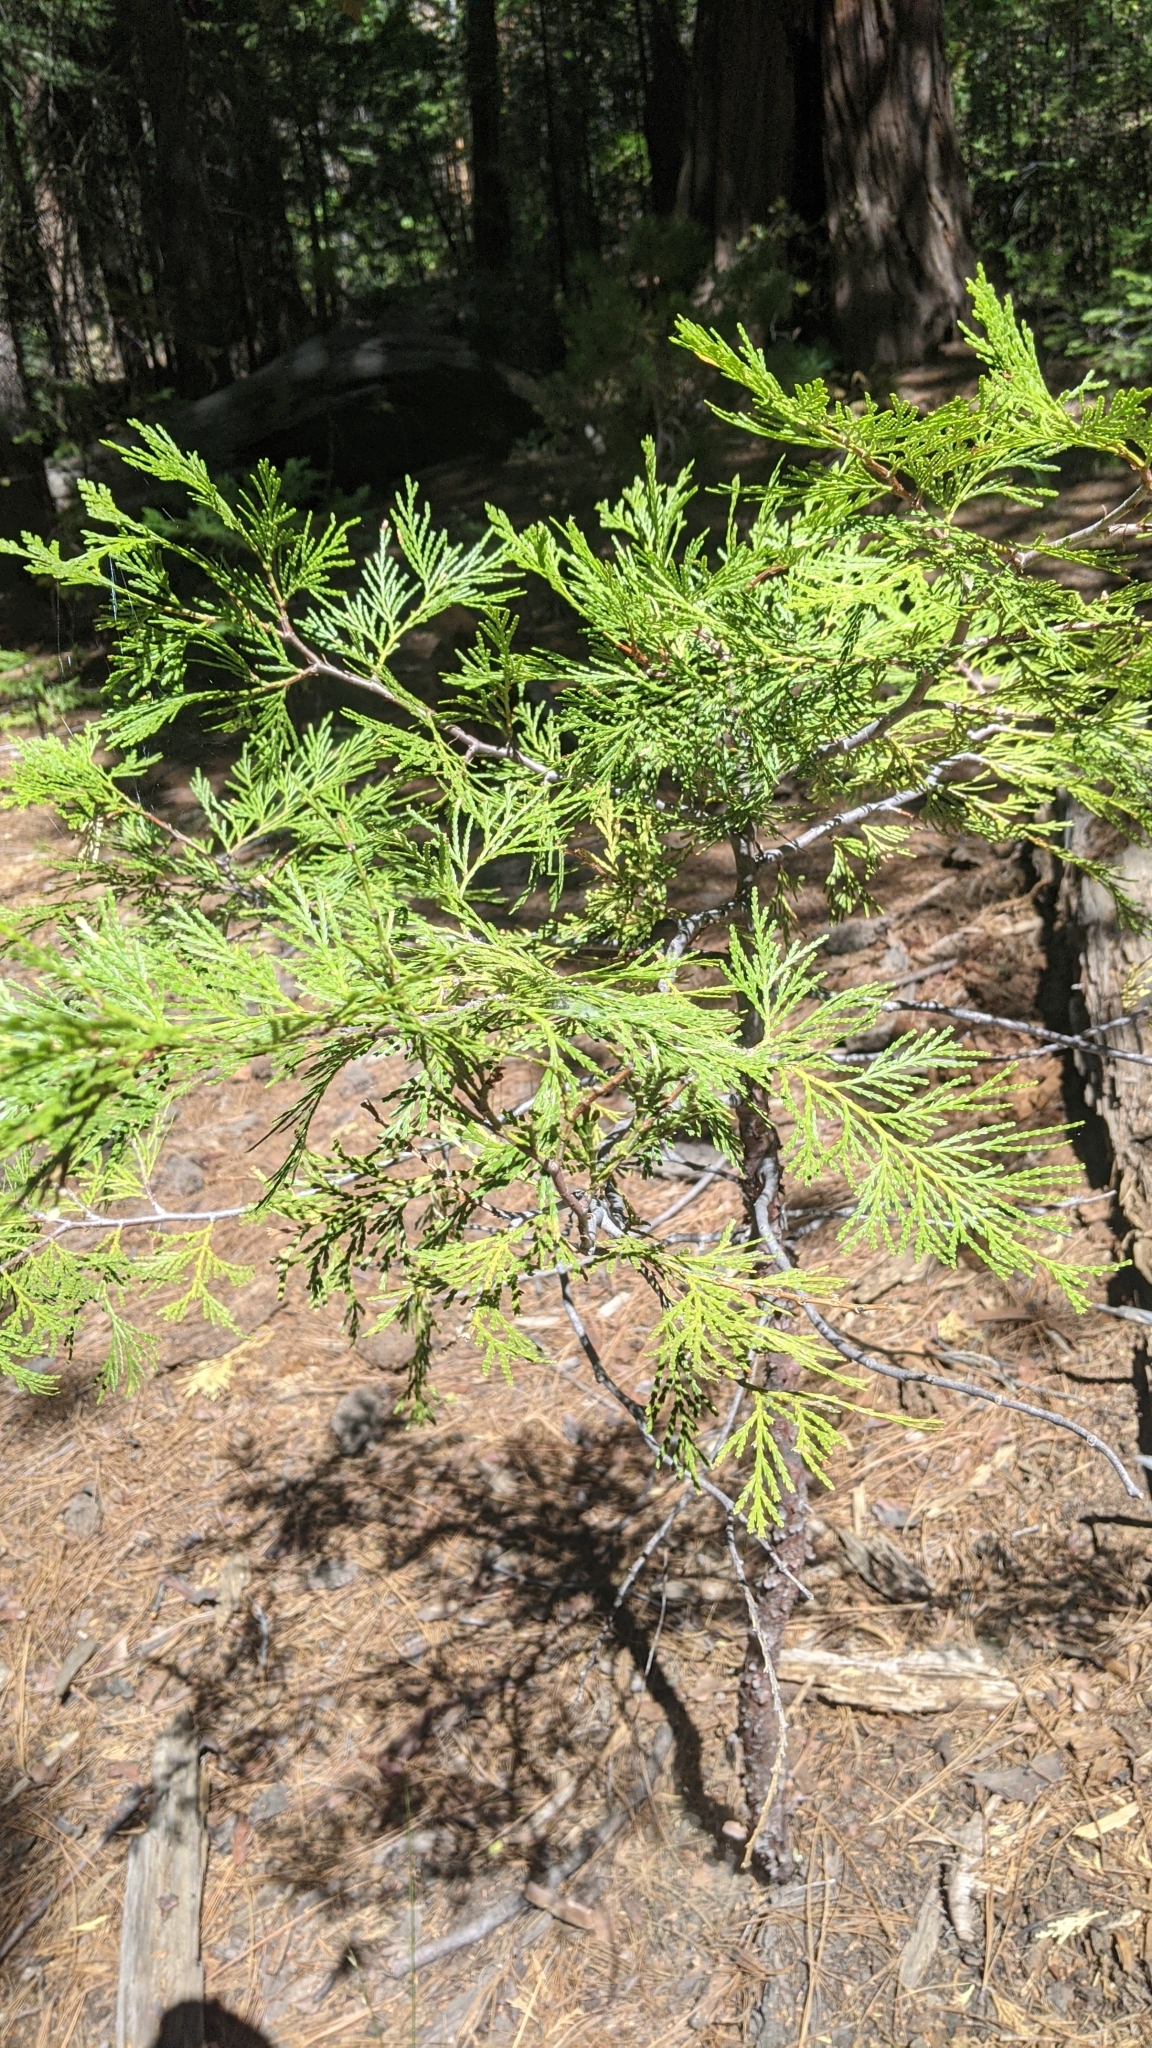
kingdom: Plantae
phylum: Tracheophyta
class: Pinopsida
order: Pinales
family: Cupressaceae
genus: Calocedrus
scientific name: Calocedrus decurrens
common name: Californian incense-cedar
